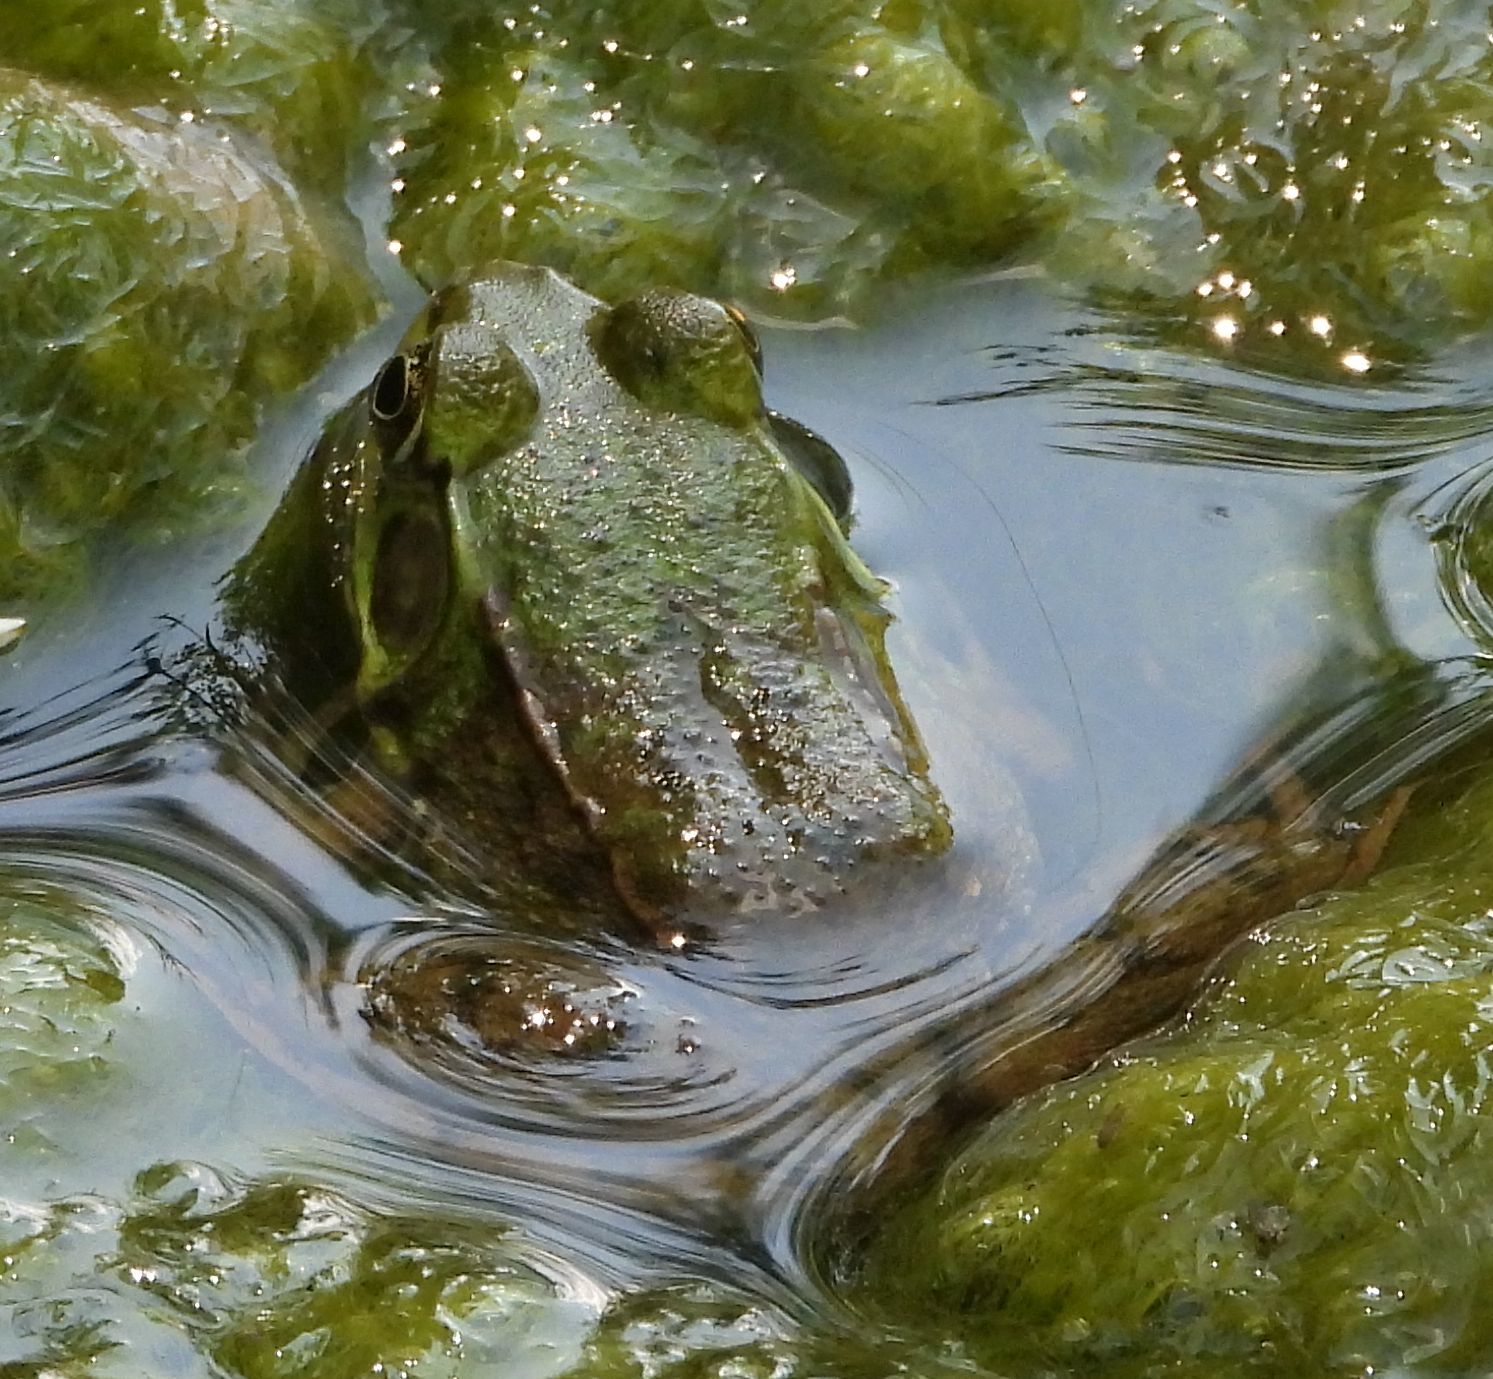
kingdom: Animalia
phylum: Chordata
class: Amphibia
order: Anura
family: Ranidae
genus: Lithobates
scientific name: Lithobates clamitans
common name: Green frog
